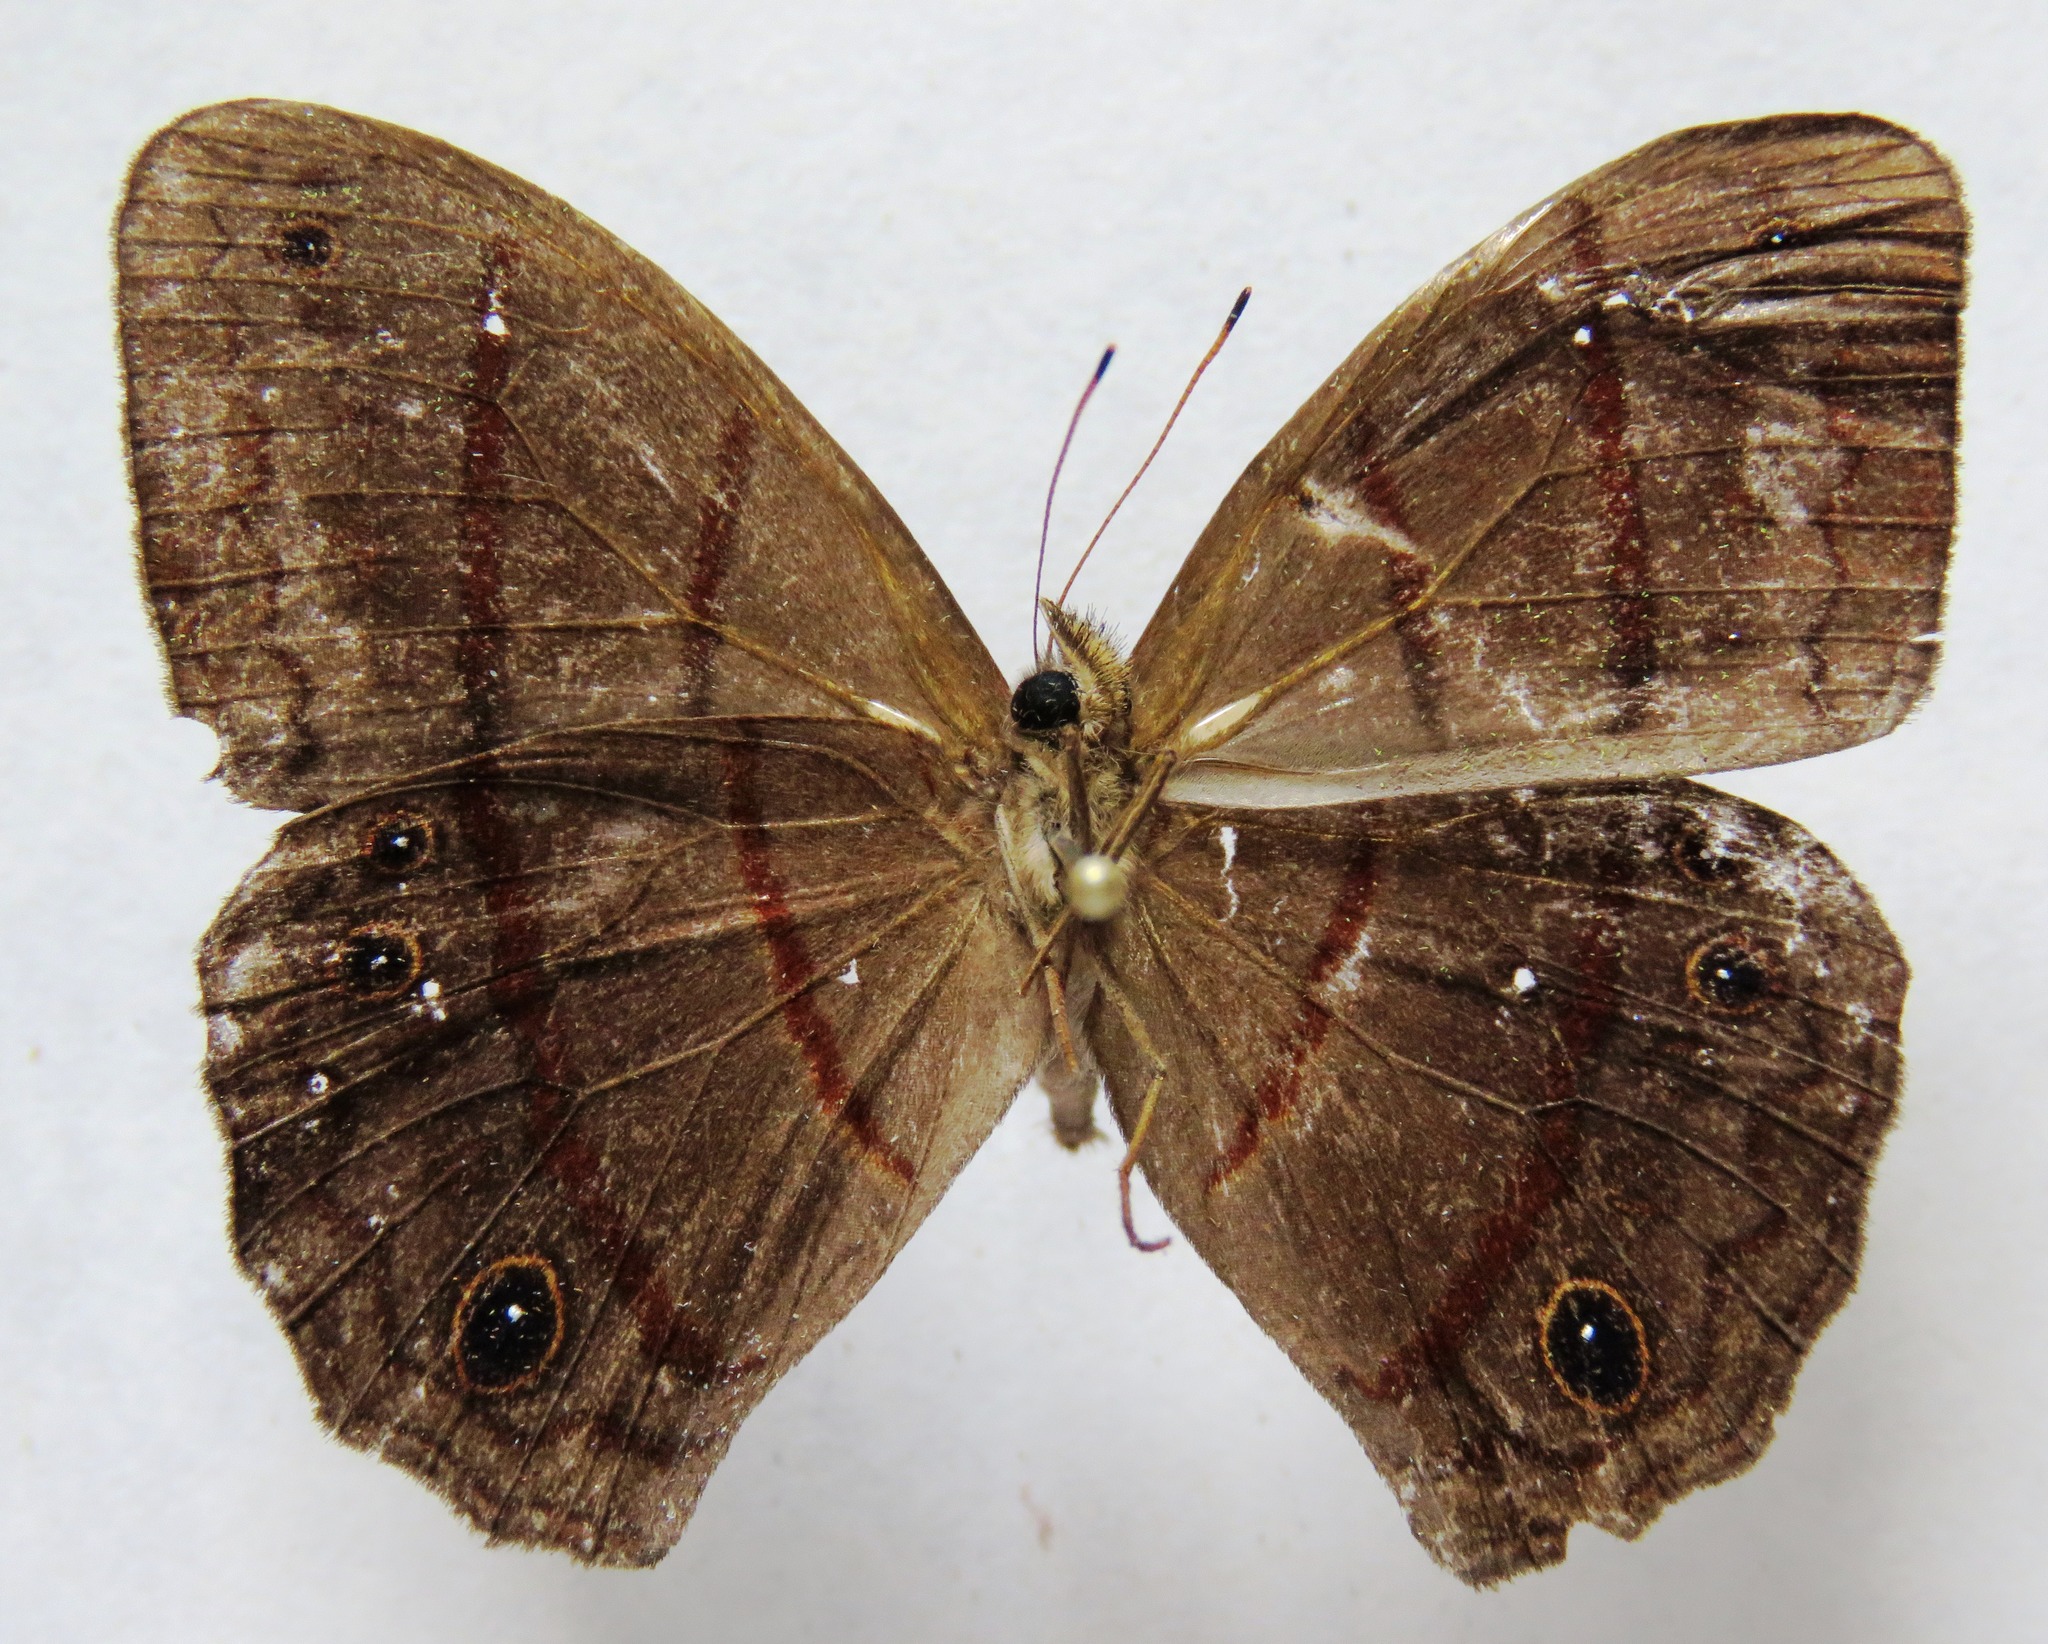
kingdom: Animalia
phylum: Arthropoda
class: Insecta
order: Lepidoptera
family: Nymphalidae
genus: Satyrotaygetis
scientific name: Satyrotaygetis satyrina
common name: Wide-bordered satyr
